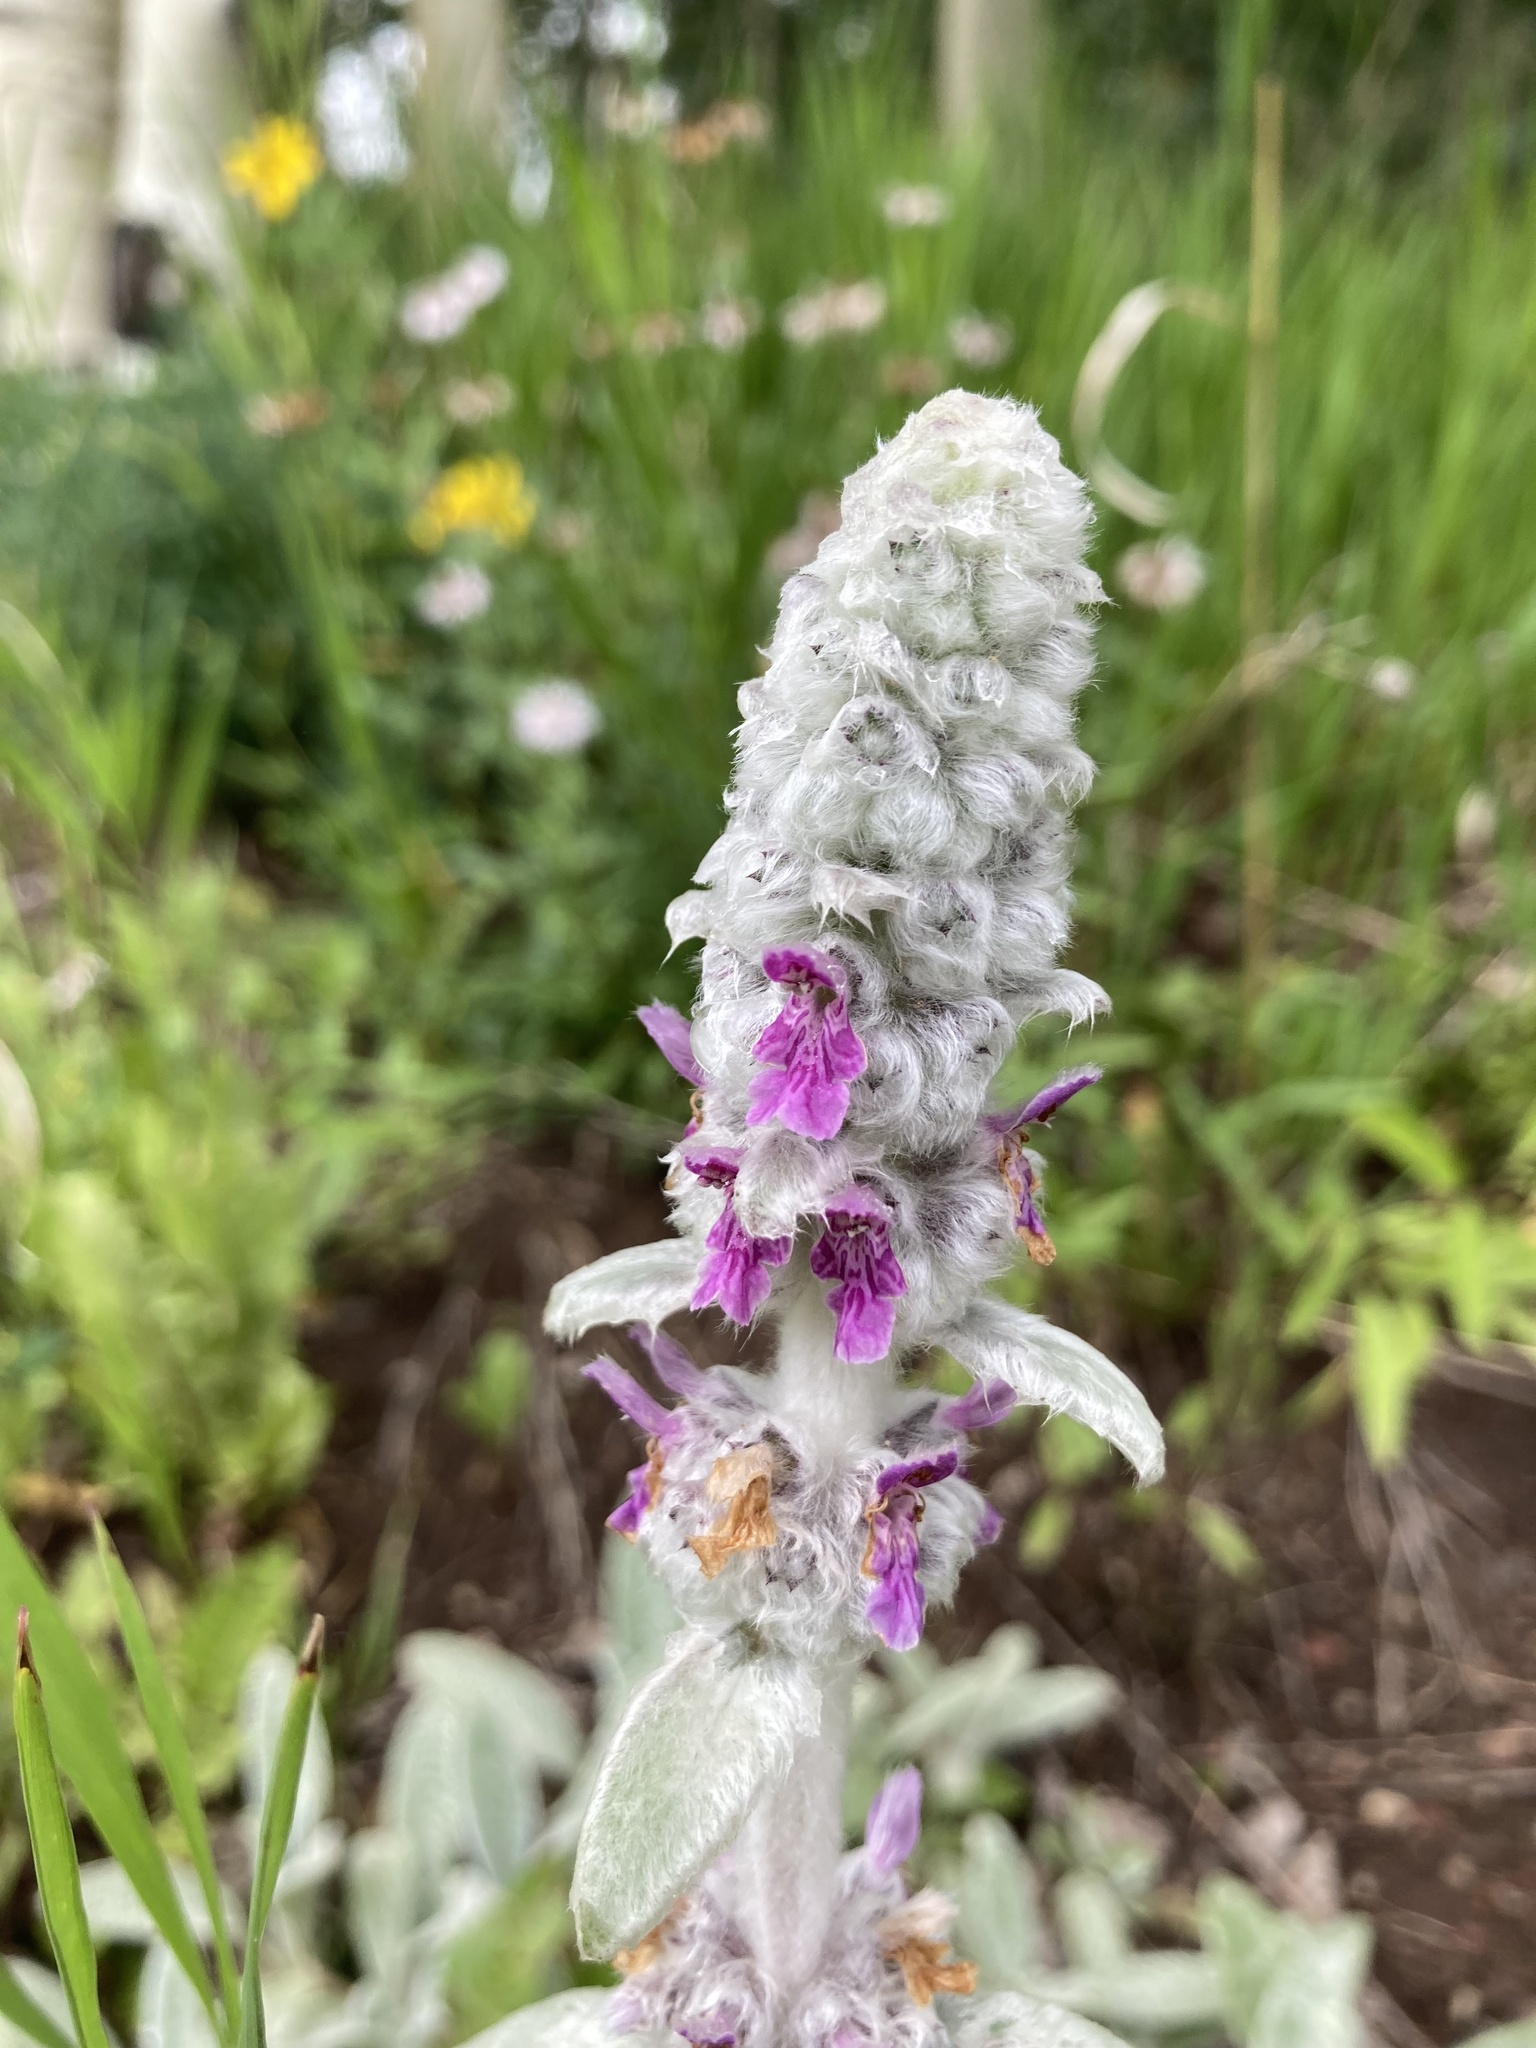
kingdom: Plantae
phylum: Tracheophyta
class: Magnoliopsida
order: Lamiales
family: Lamiaceae
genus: Stachys
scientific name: Stachys byzantina
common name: Lamb's-ear
